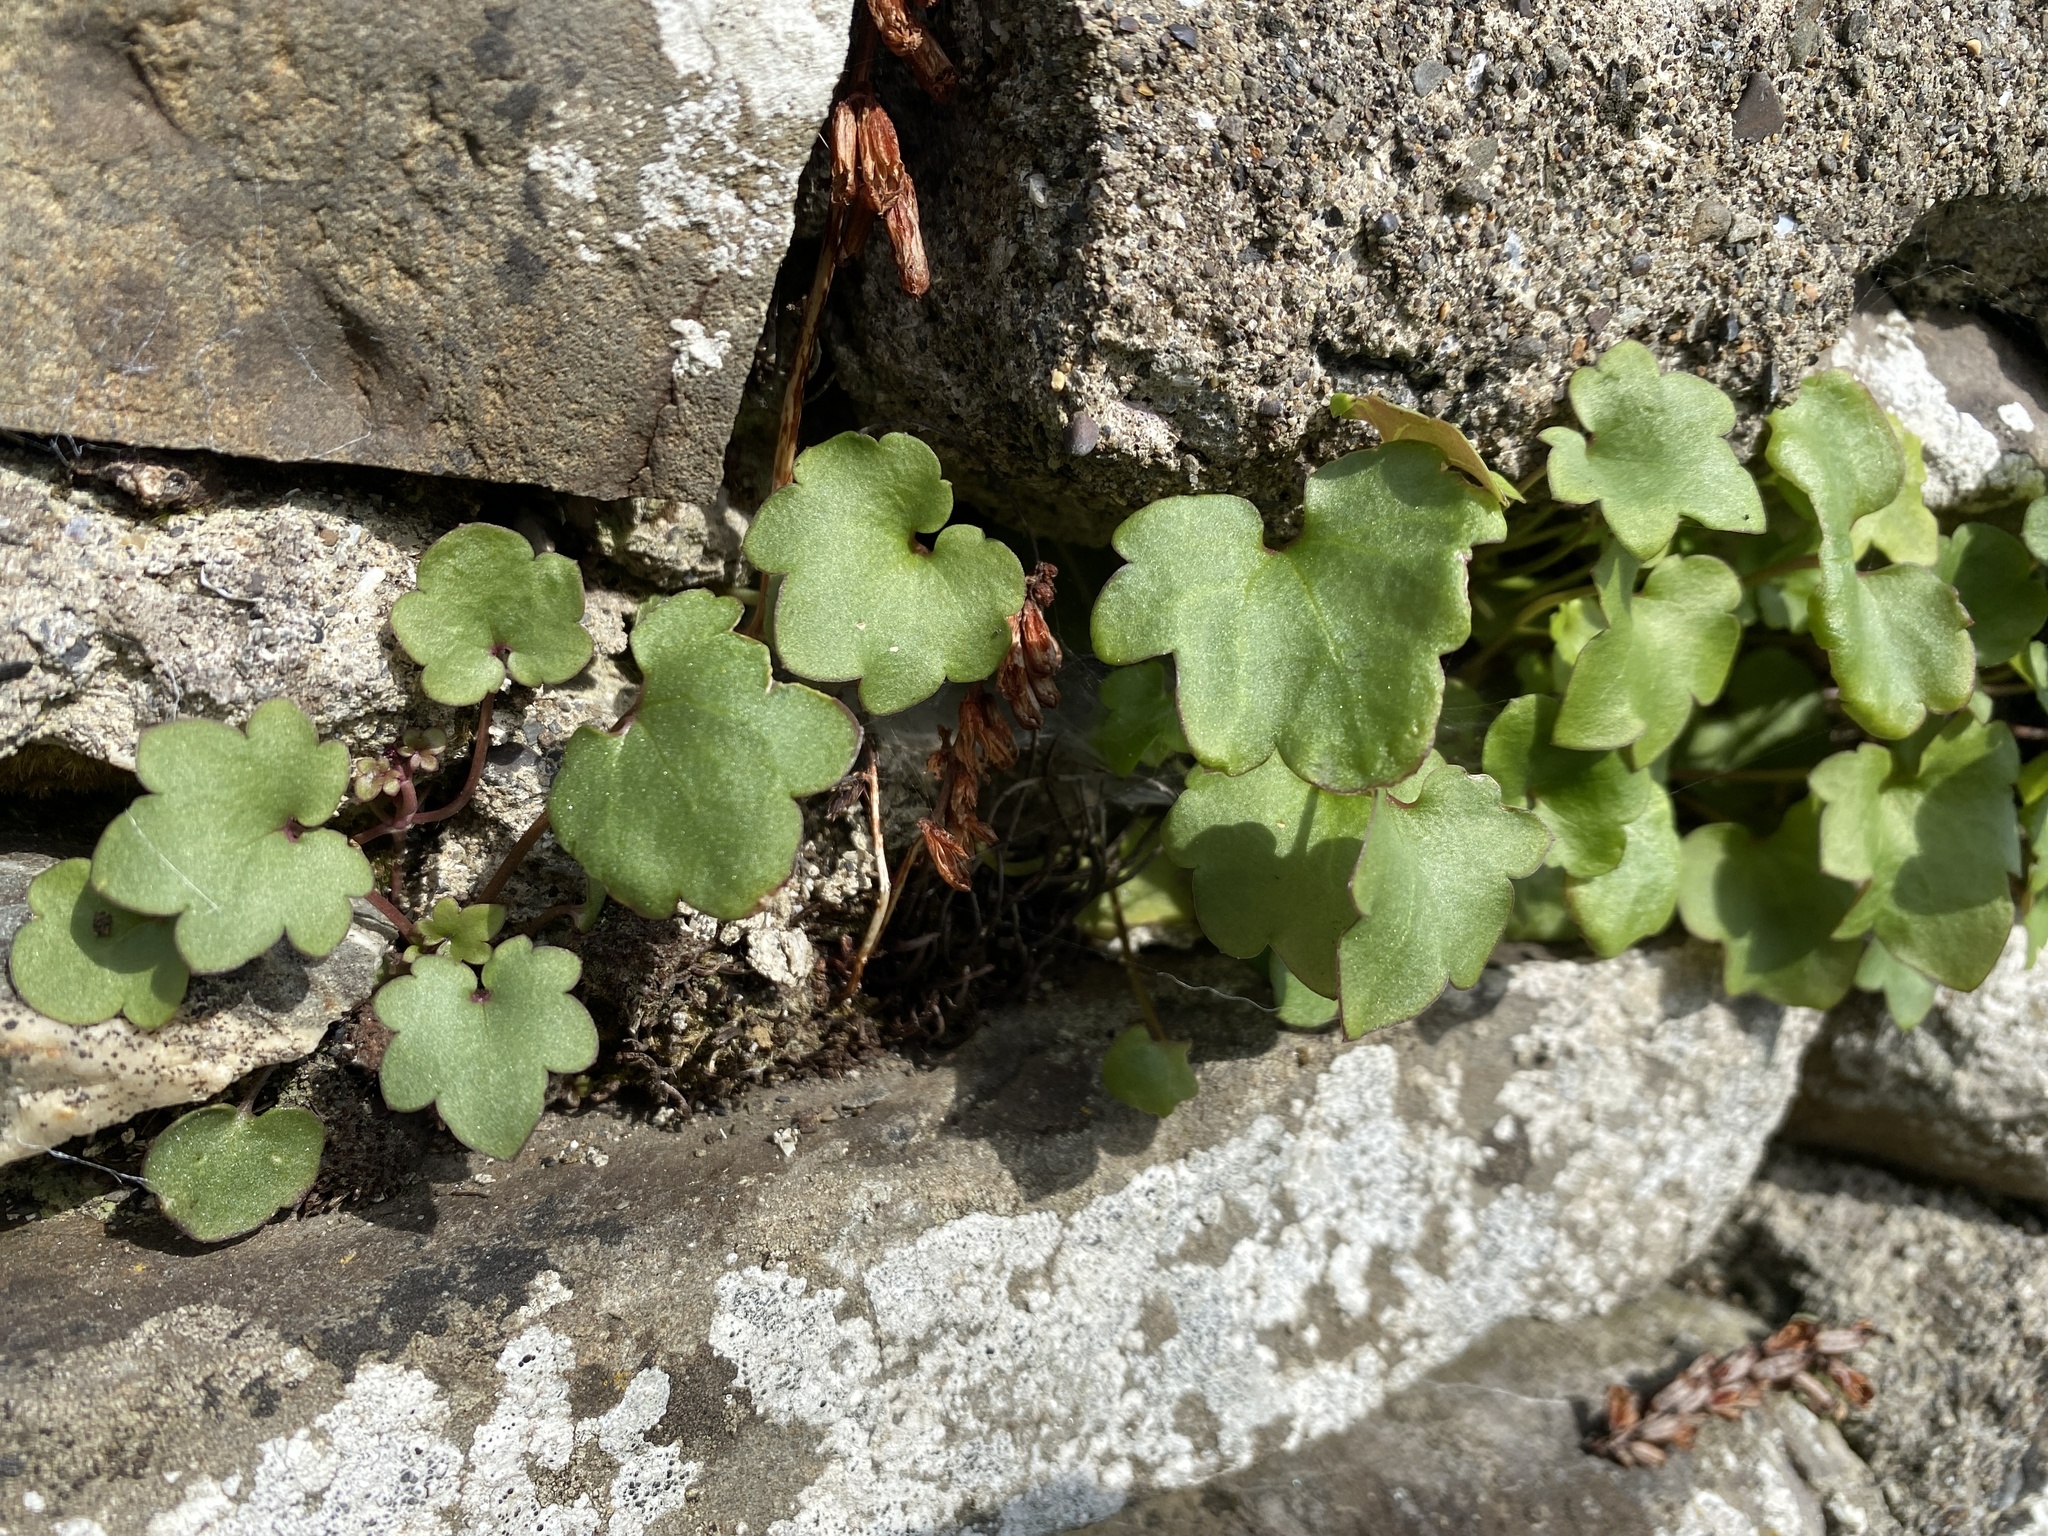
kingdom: Plantae
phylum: Tracheophyta
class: Magnoliopsida
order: Lamiales
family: Plantaginaceae
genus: Cymbalaria
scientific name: Cymbalaria muralis
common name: Ivy-leaved toadflax
